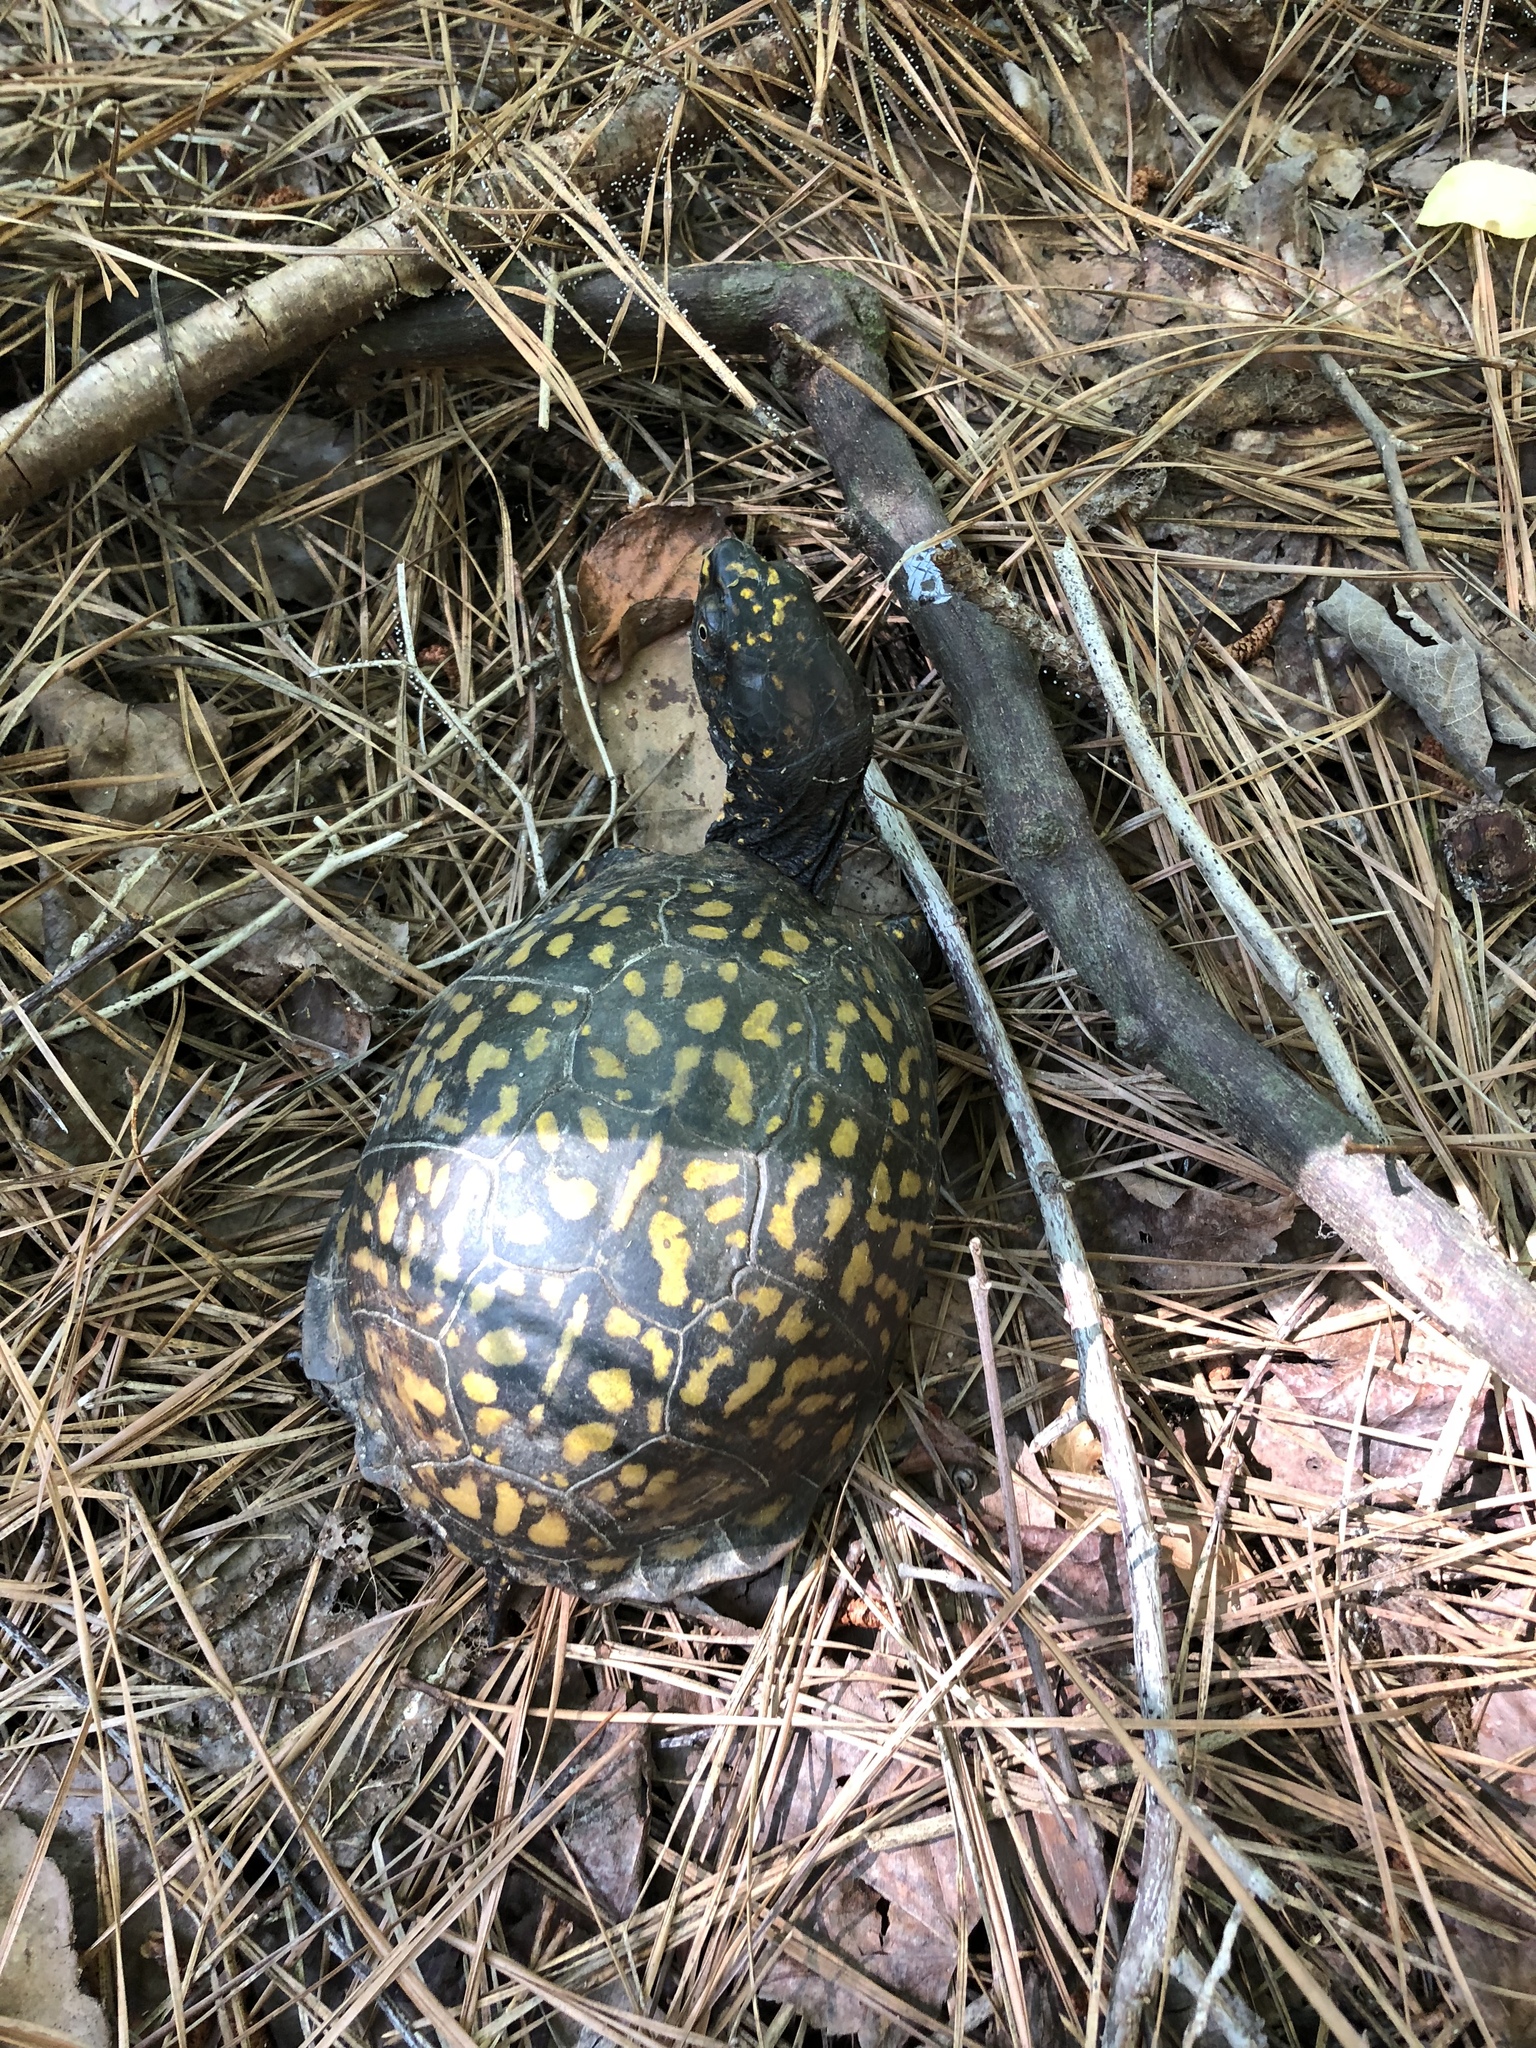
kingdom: Animalia
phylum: Chordata
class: Testudines
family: Emydidae
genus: Terrapene
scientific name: Terrapene carolina
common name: Common box turtle
